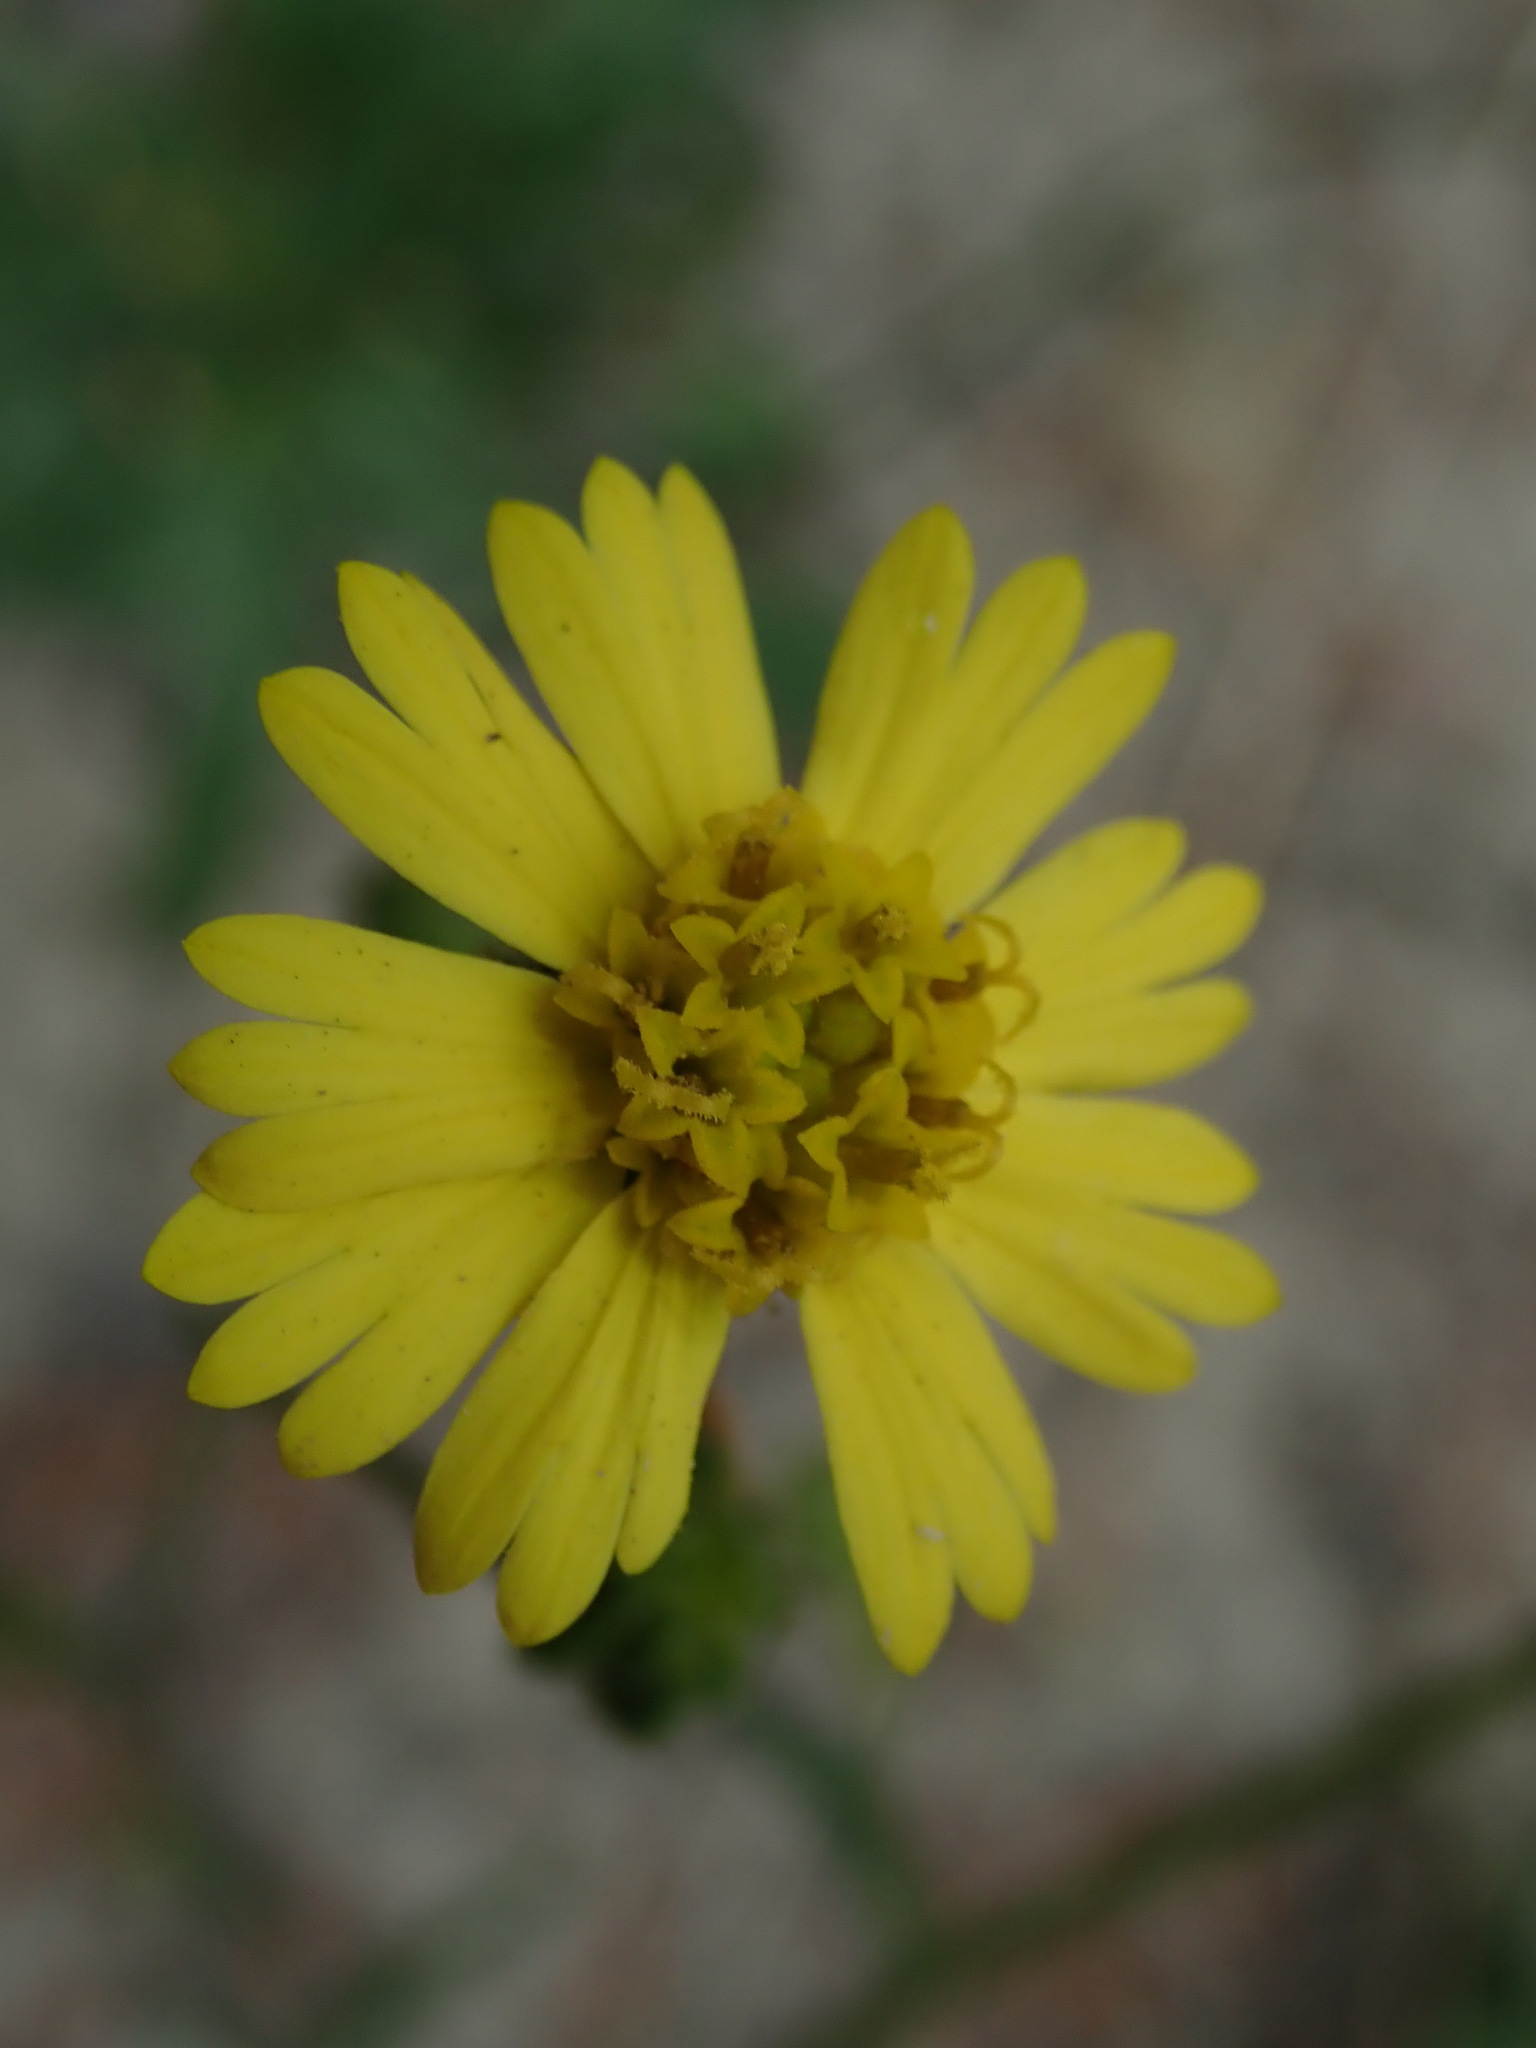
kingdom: Plantae
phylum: Tracheophyta
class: Magnoliopsida
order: Asterales
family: Asteraceae
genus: Anisocarpus
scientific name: Anisocarpus madioides
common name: Woodland madia
